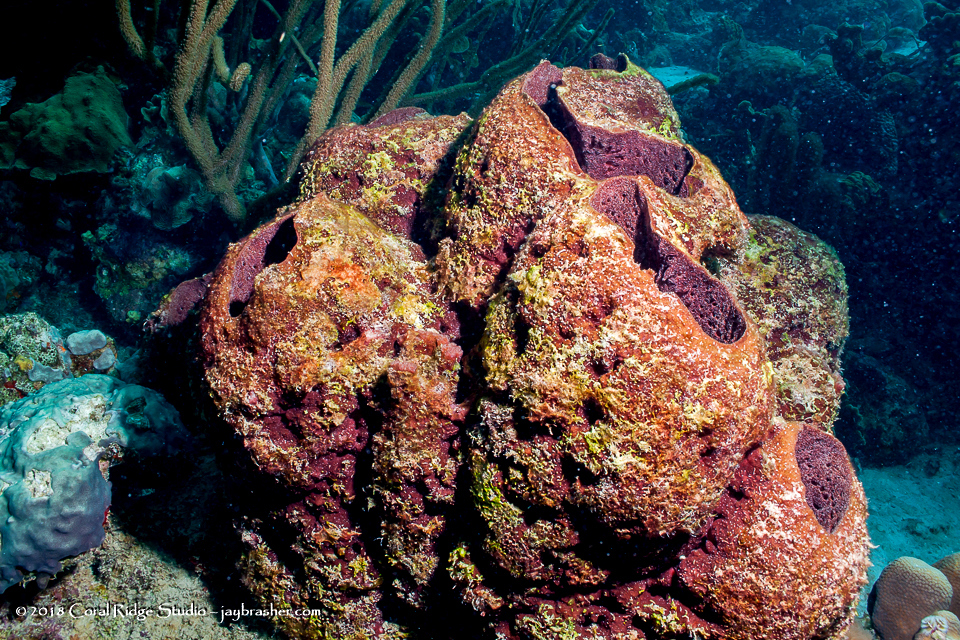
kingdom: Animalia
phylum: Porifera
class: Demospongiae
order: Biemnida
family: Biemnidae
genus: Neofibularia
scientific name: Neofibularia nolitangere
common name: Do-not-touch-me sponge
